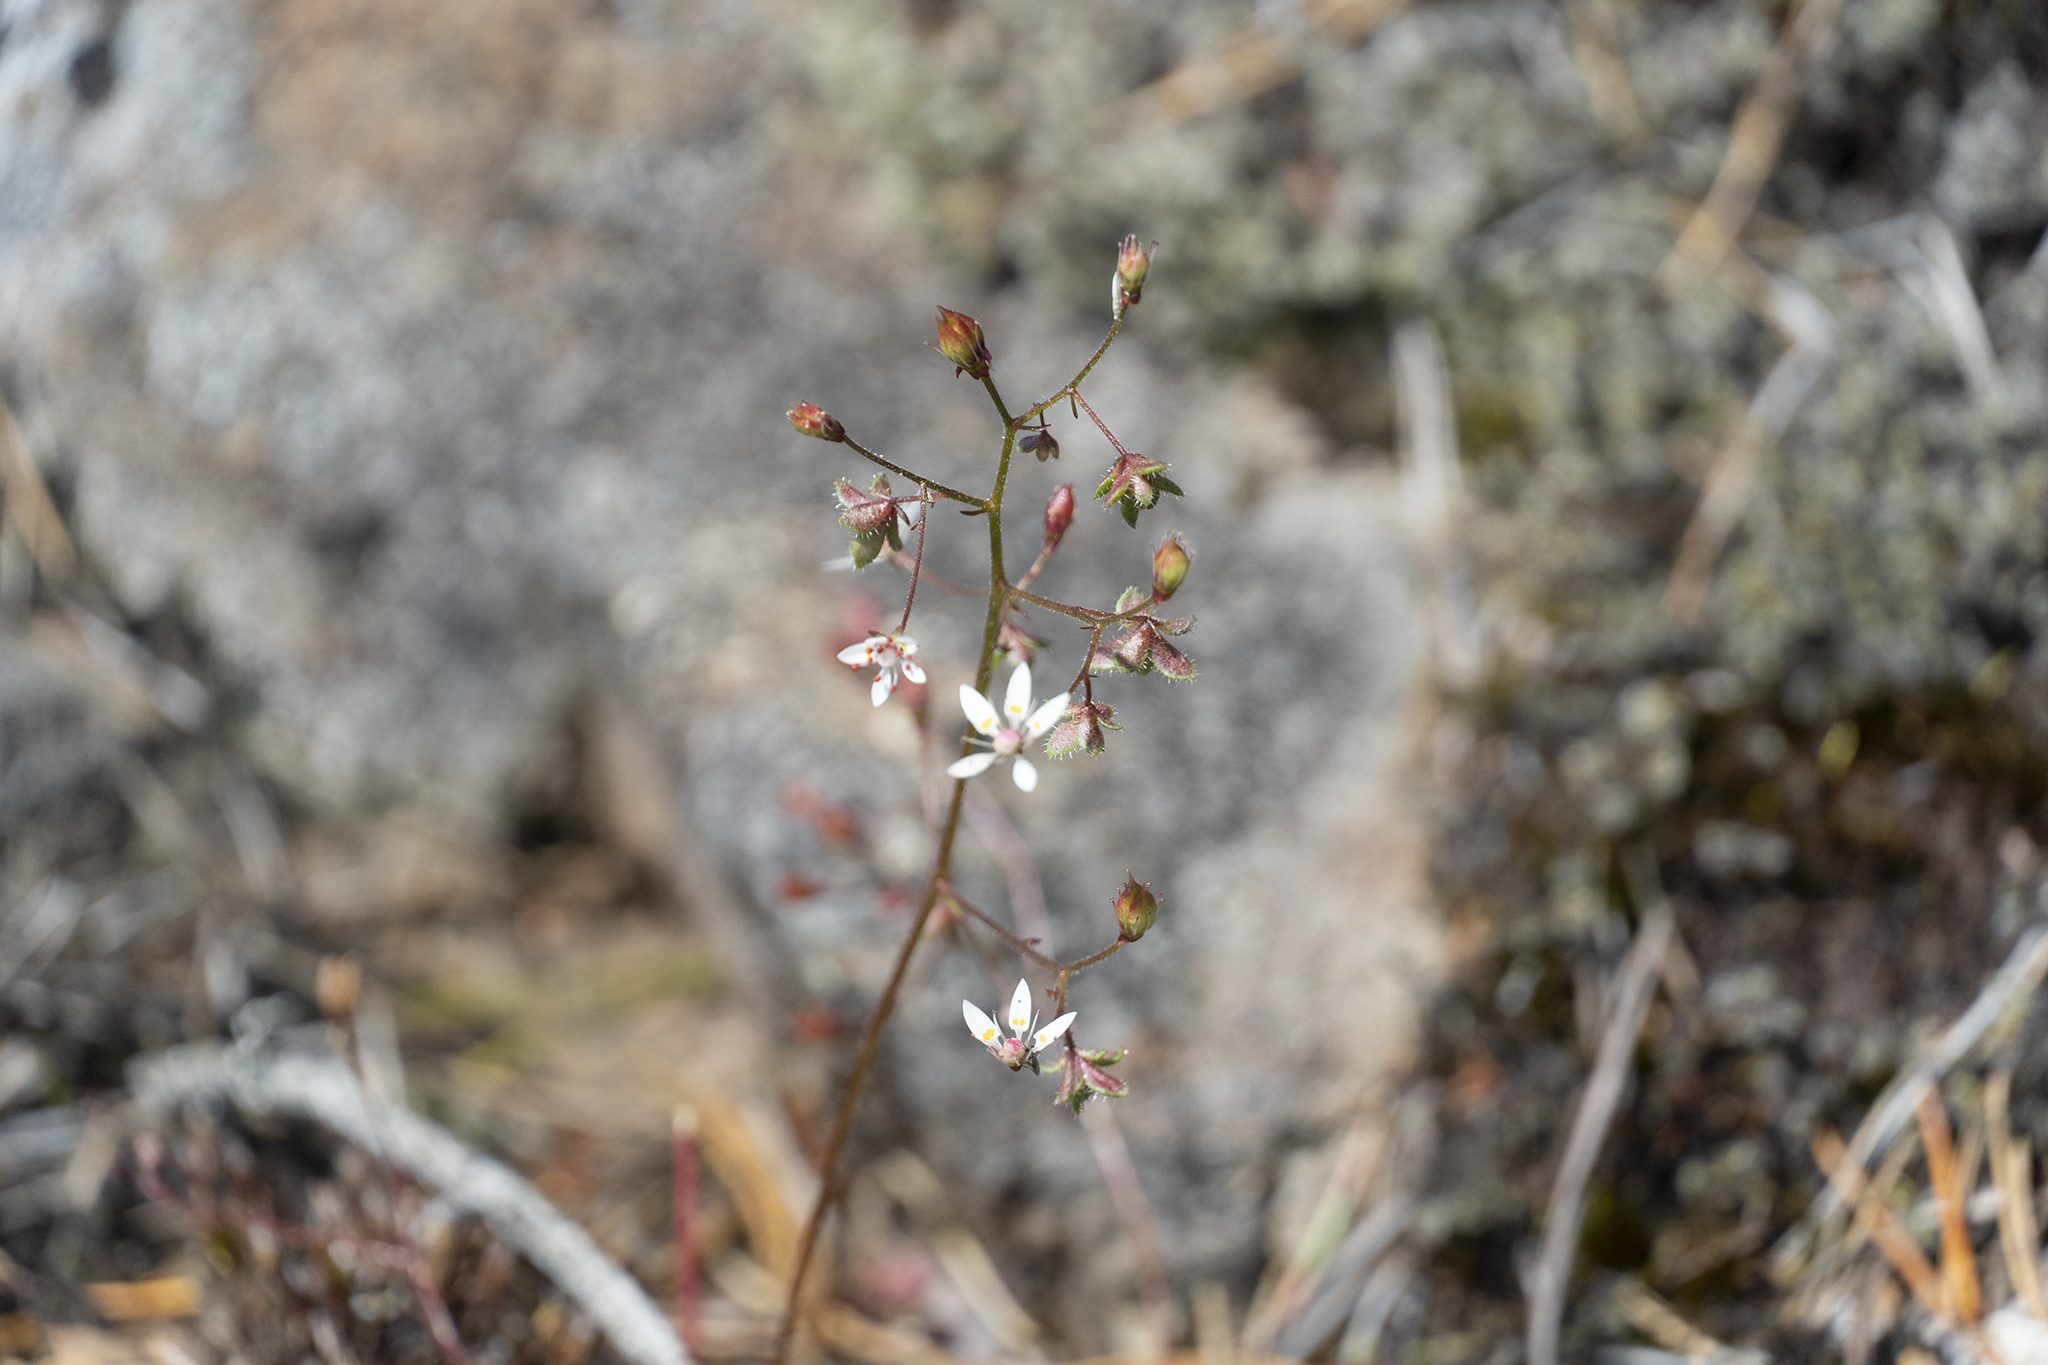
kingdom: Plantae
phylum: Tracheophyta
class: Magnoliopsida
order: Saxifragales
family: Saxifragaceae
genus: Micranthes
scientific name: Micranthes ferruginea
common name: Rusty saxifrage
